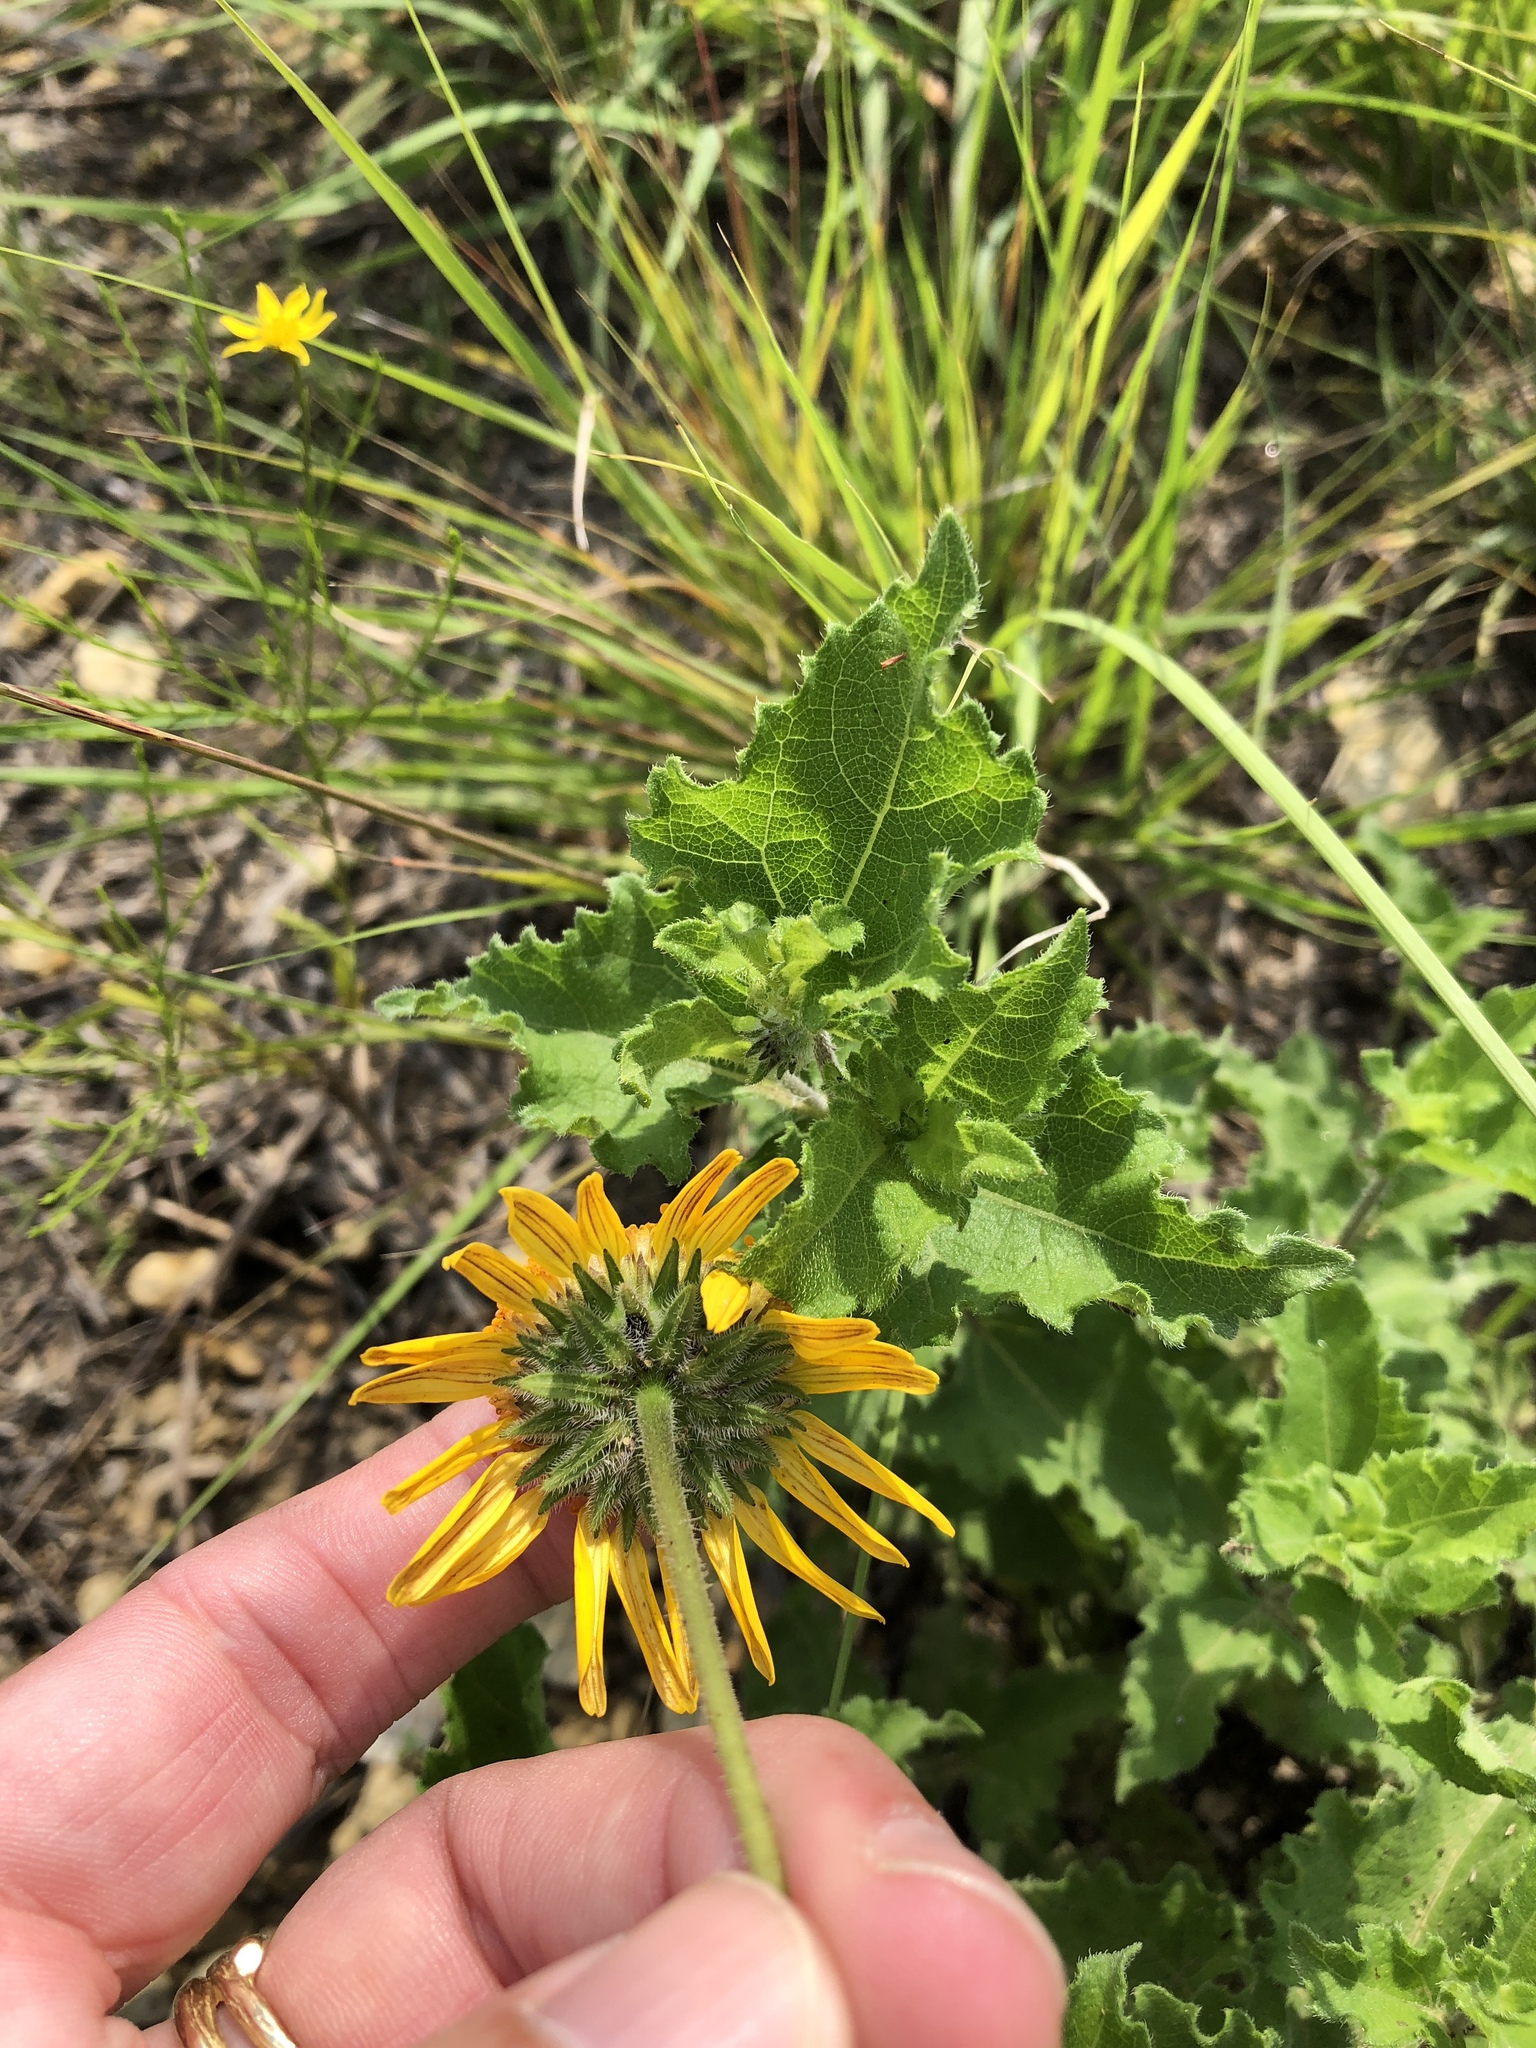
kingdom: Plantae
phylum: Tracheophyta
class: Magnoliopsida
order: Asterales
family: Asteraceae
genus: Simsia
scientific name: Simsia calva
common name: Awnless bush-sunflower
